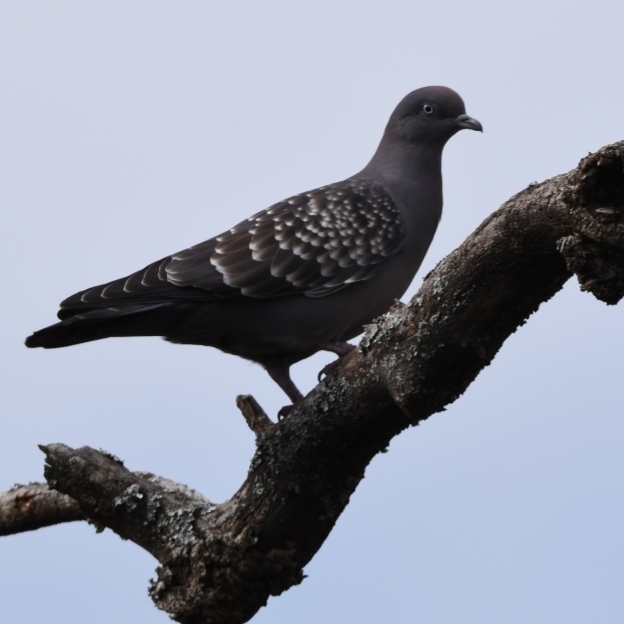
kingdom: Animalia
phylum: Chordata
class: Aves
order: Columbiformes
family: Columbidae
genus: Patagioenas
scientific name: Patagioenas maculosa
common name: Spot-winged pigeon
